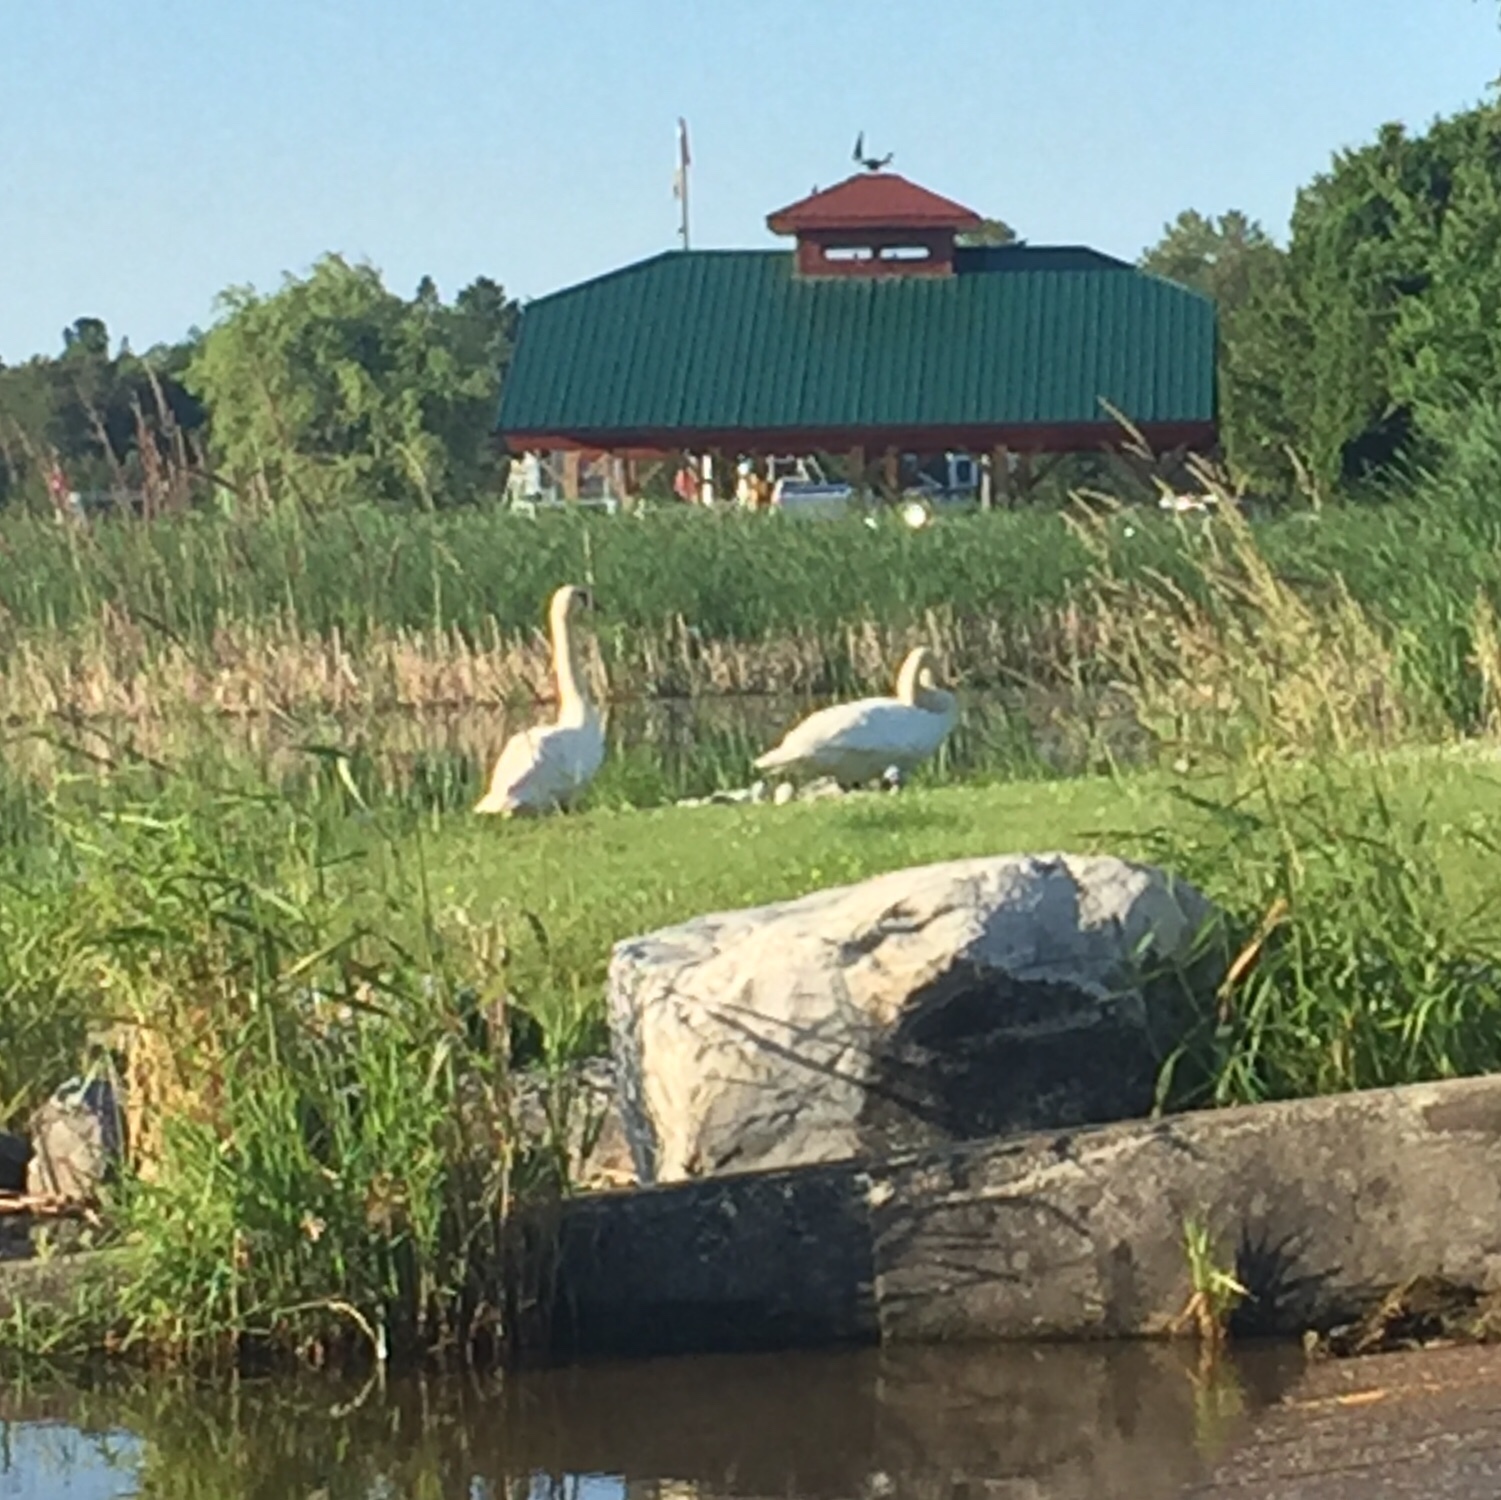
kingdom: Animalia
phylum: Chordata
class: Aves
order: Anseriformes
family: Anatidae
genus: Cygnus
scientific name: Cygnus olor
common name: Mute swan
